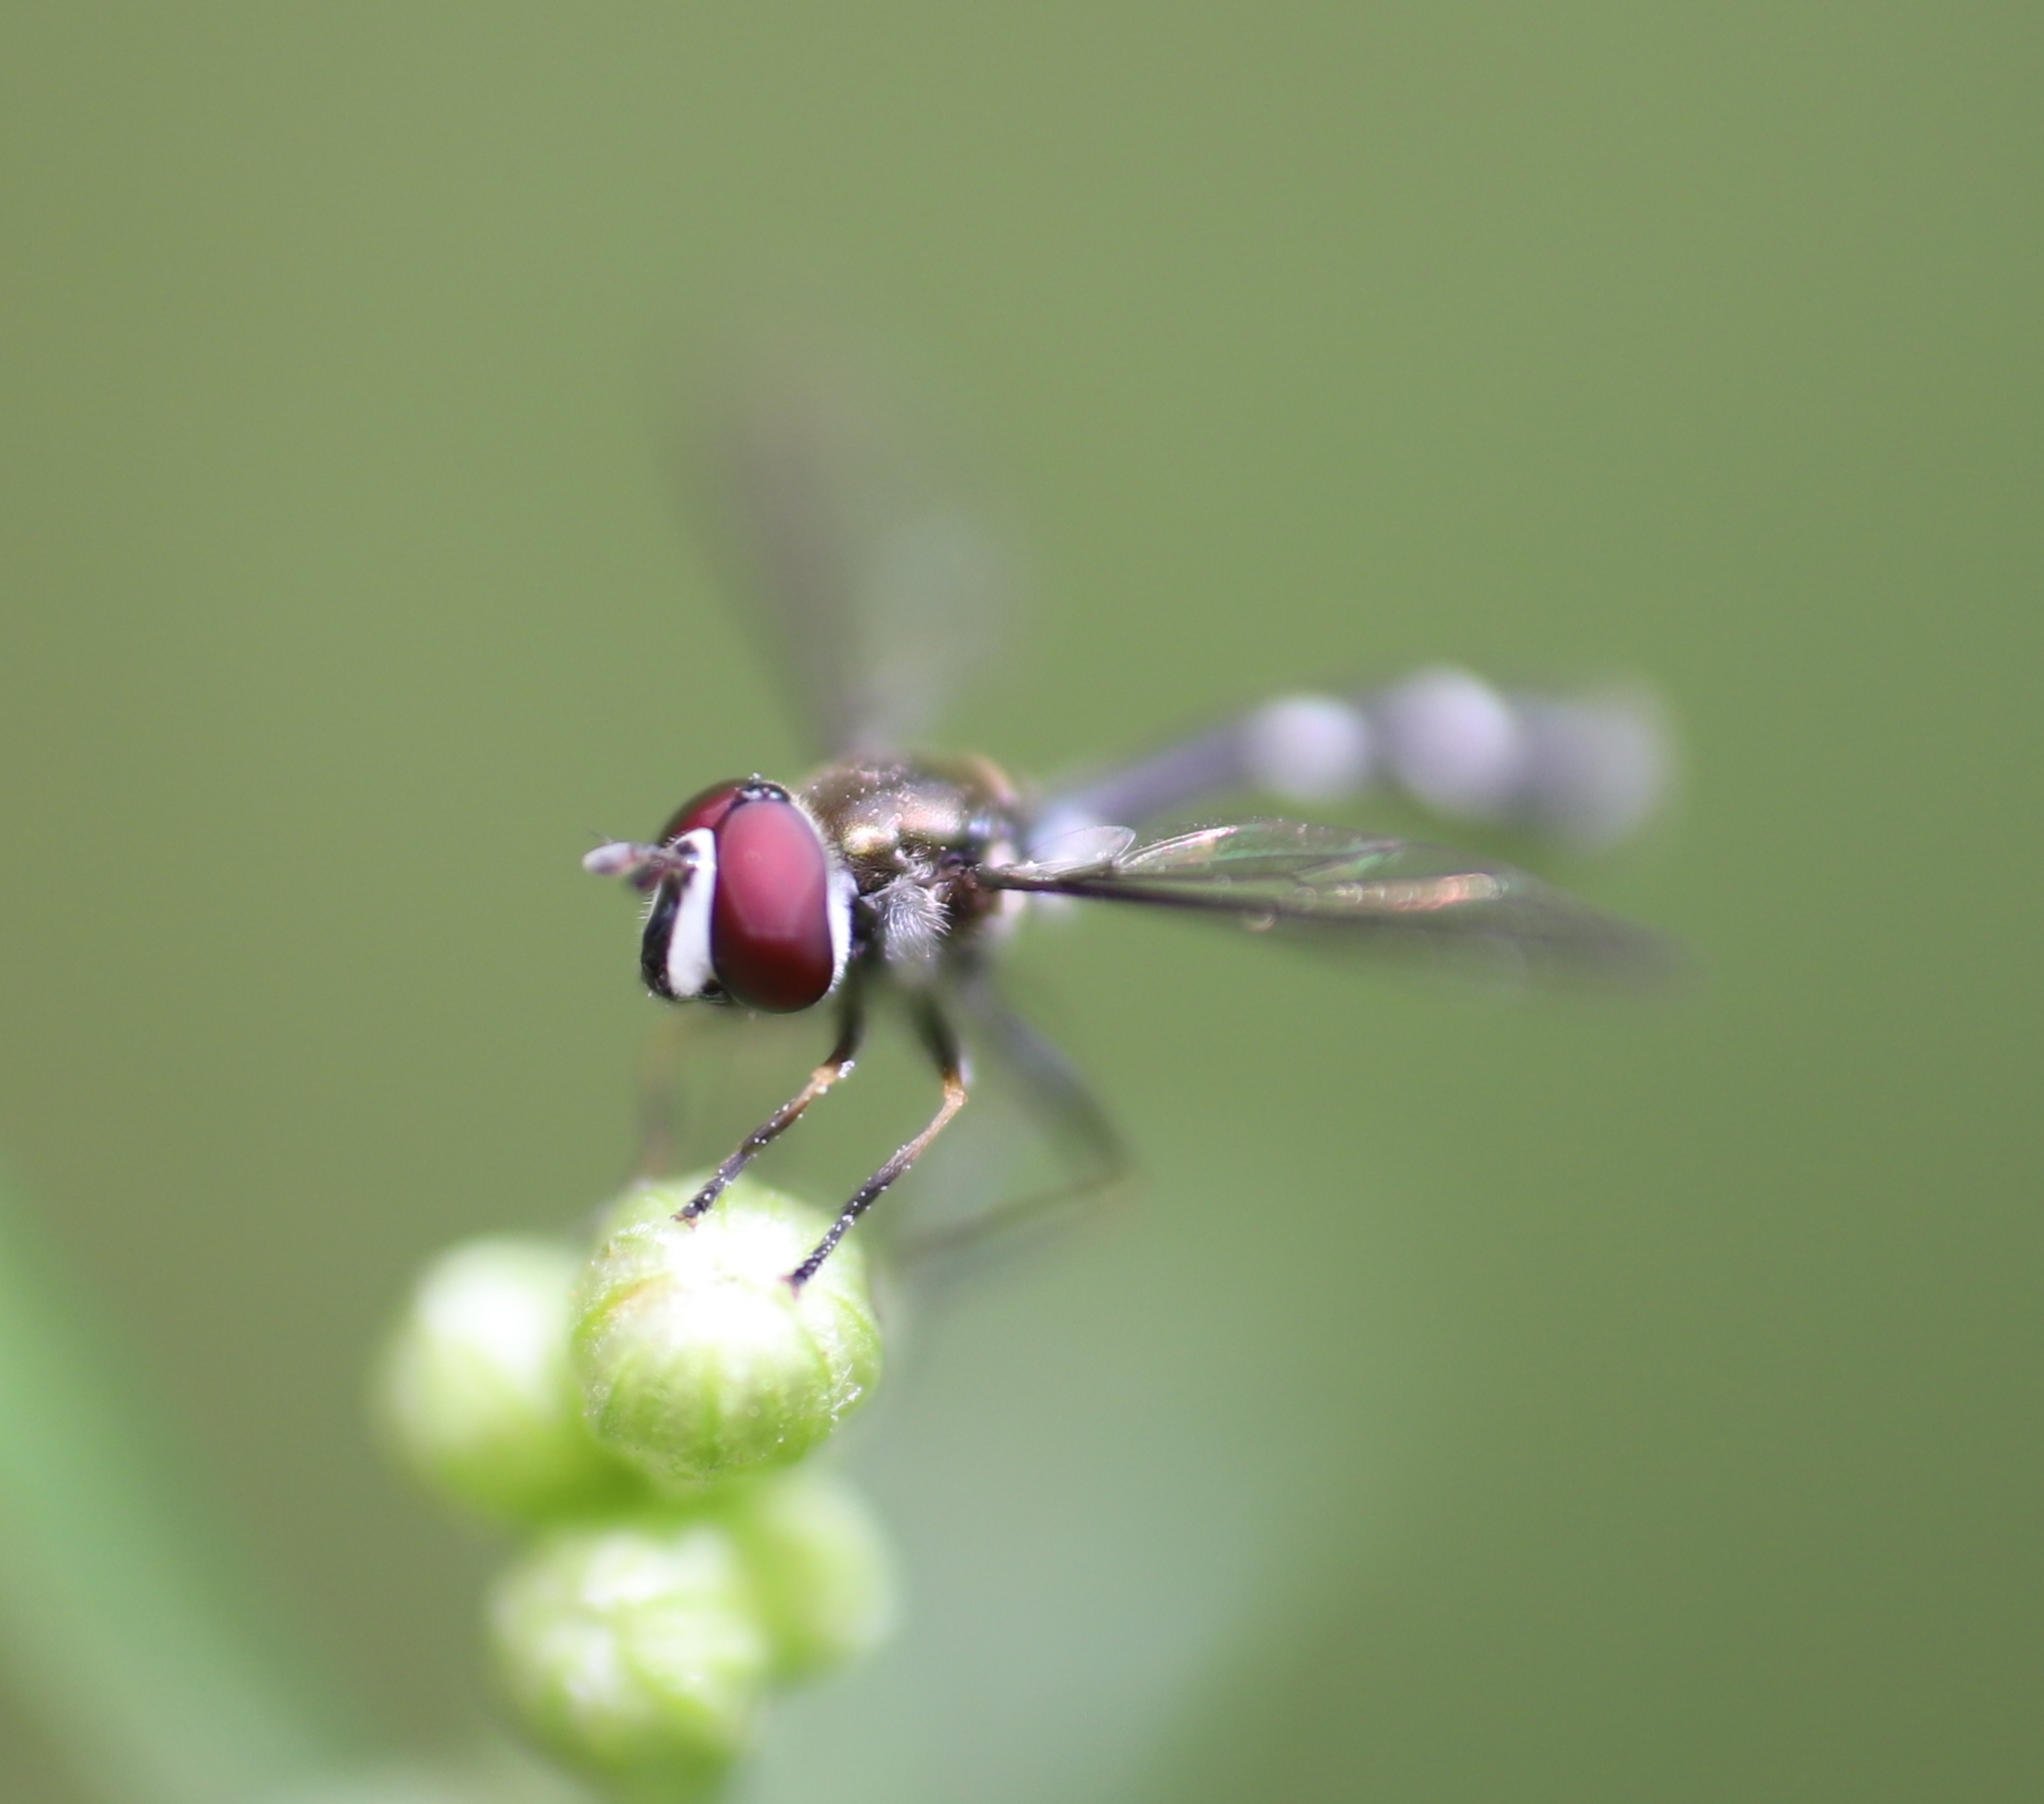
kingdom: Animalia
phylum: Arthropoda
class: Insecta
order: Diptera
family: Syrphidae
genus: Dioprosopa
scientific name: Dioprosopa clavatus
